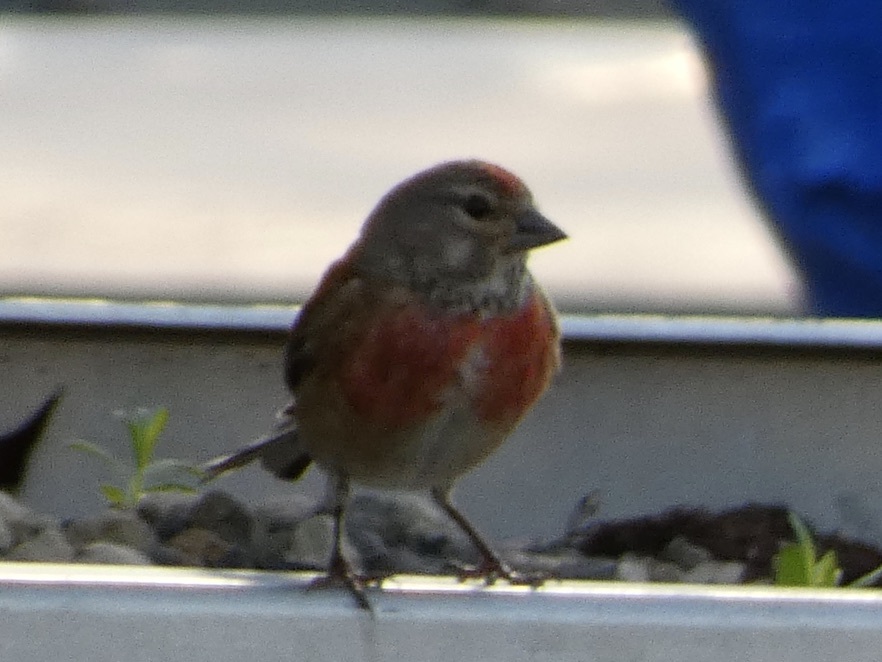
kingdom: Animalia
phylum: Chordata
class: Aves
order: Passeriformes
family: Fringillidae
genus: Linaria
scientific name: Linaria cannabina
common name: Common linnet
